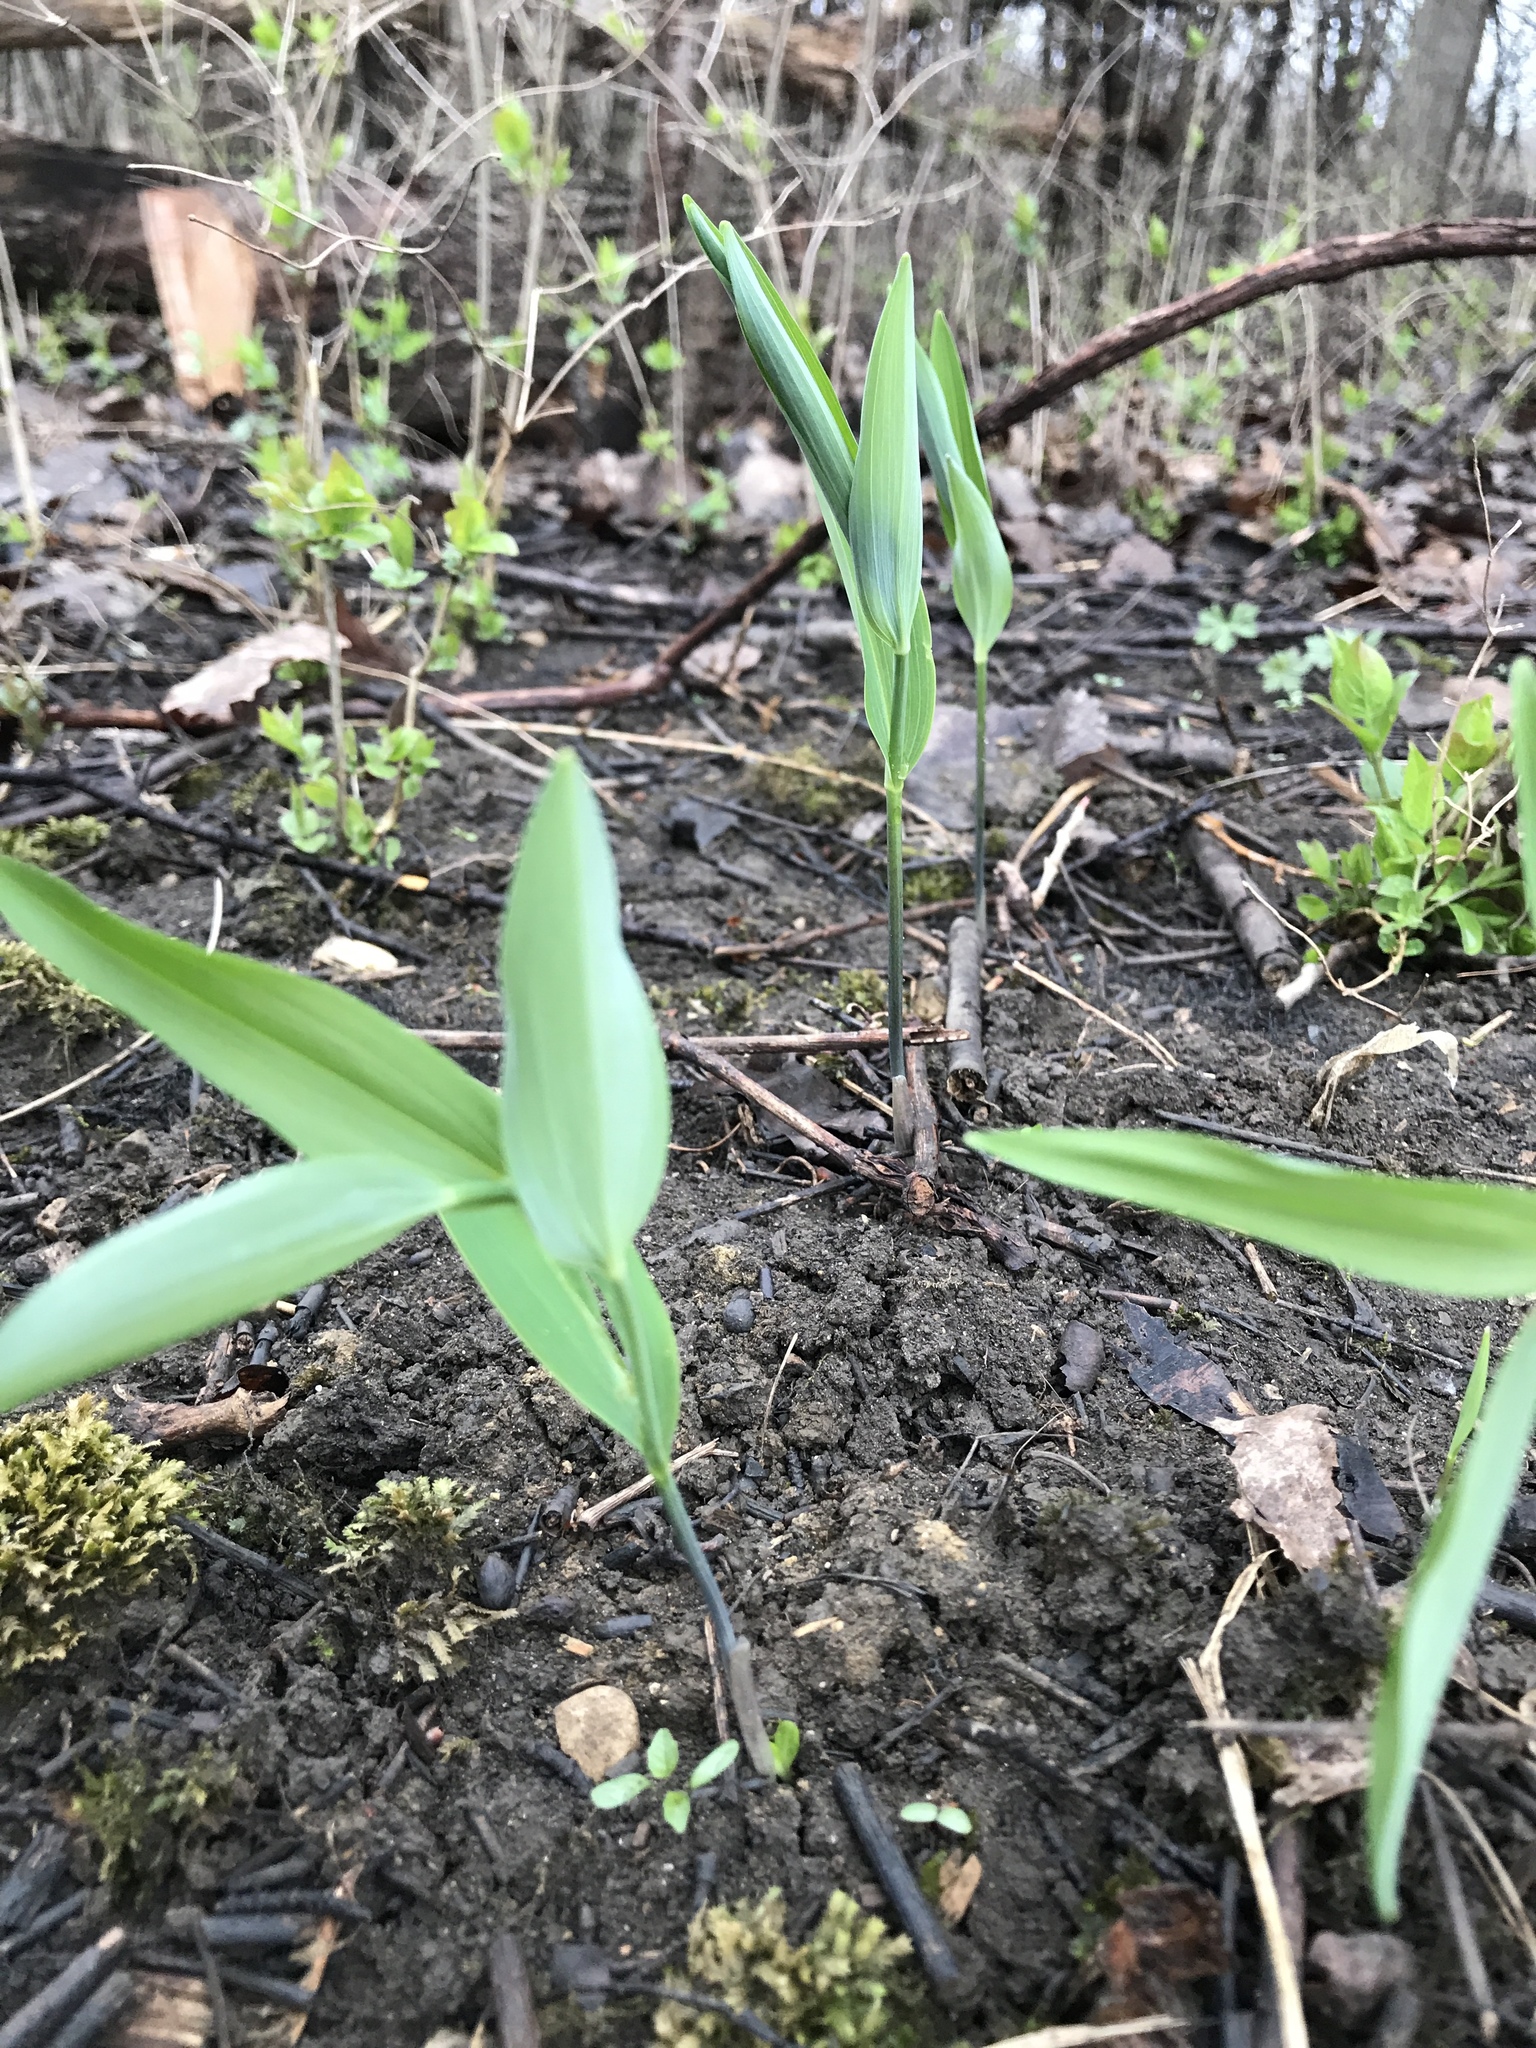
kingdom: Plantae
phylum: Tracheophyta
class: Liliopsida
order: Asparagales
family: Asparagaceae
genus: Polygonatum
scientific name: Polygonatum biflorum
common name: American solomon's-seal
